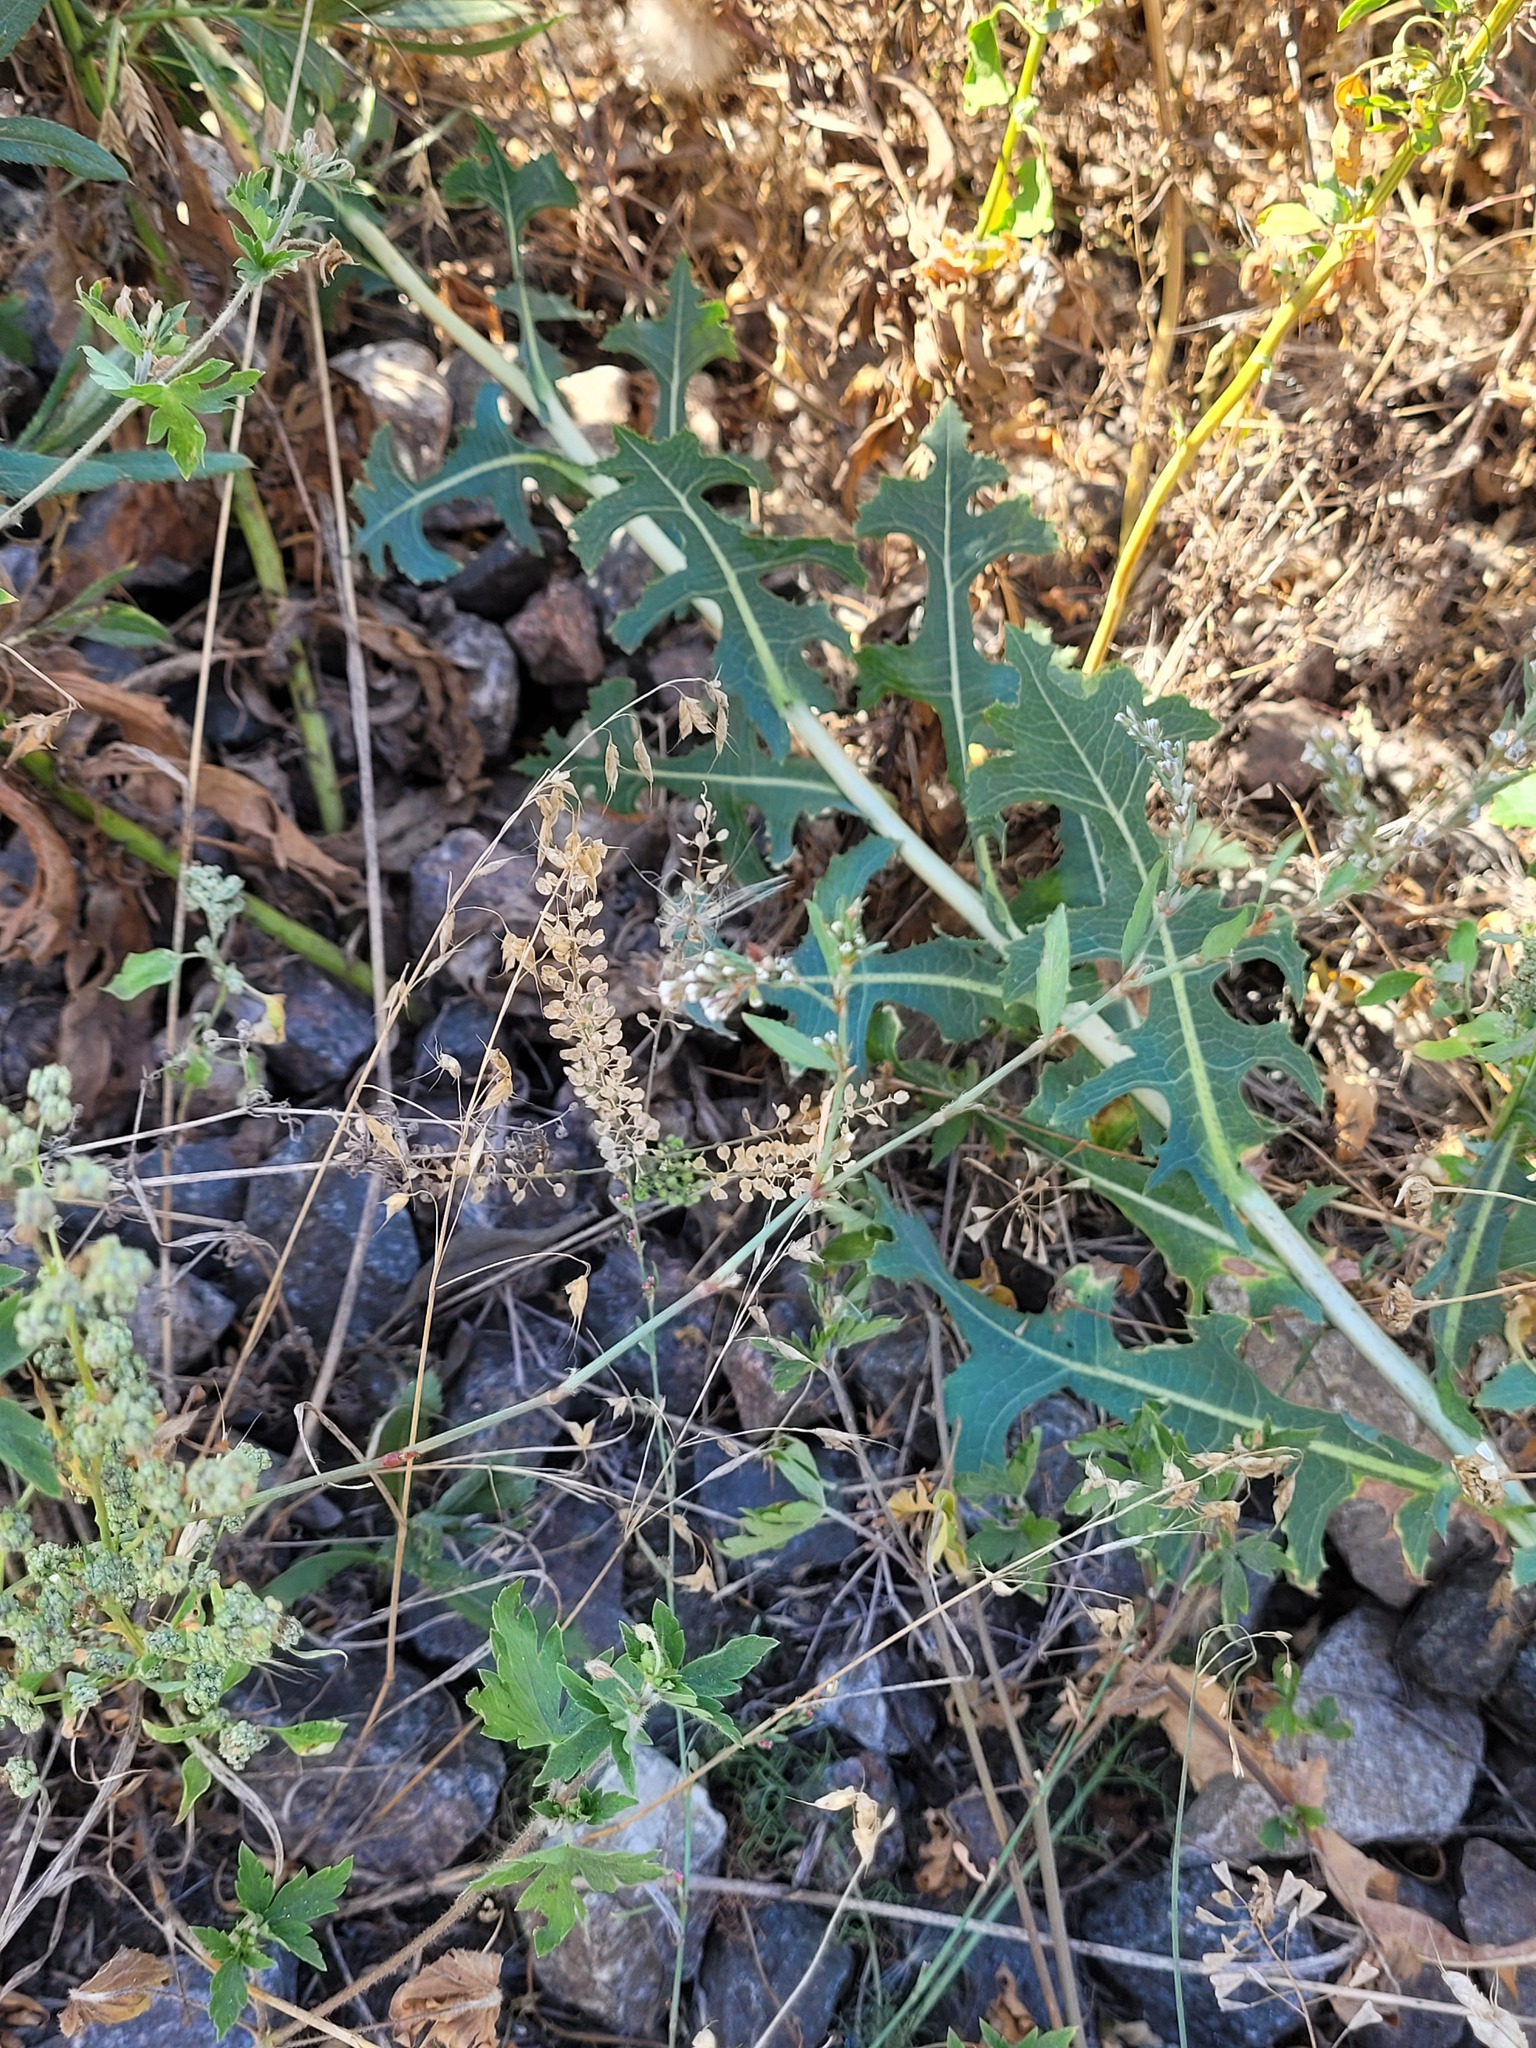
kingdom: Plantae
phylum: Tracheophyta
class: Magnoliopsida
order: Brassicales
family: Brassicaceae
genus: Lepidium
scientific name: Lepidium densiflorum
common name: Miner's pepperwort
